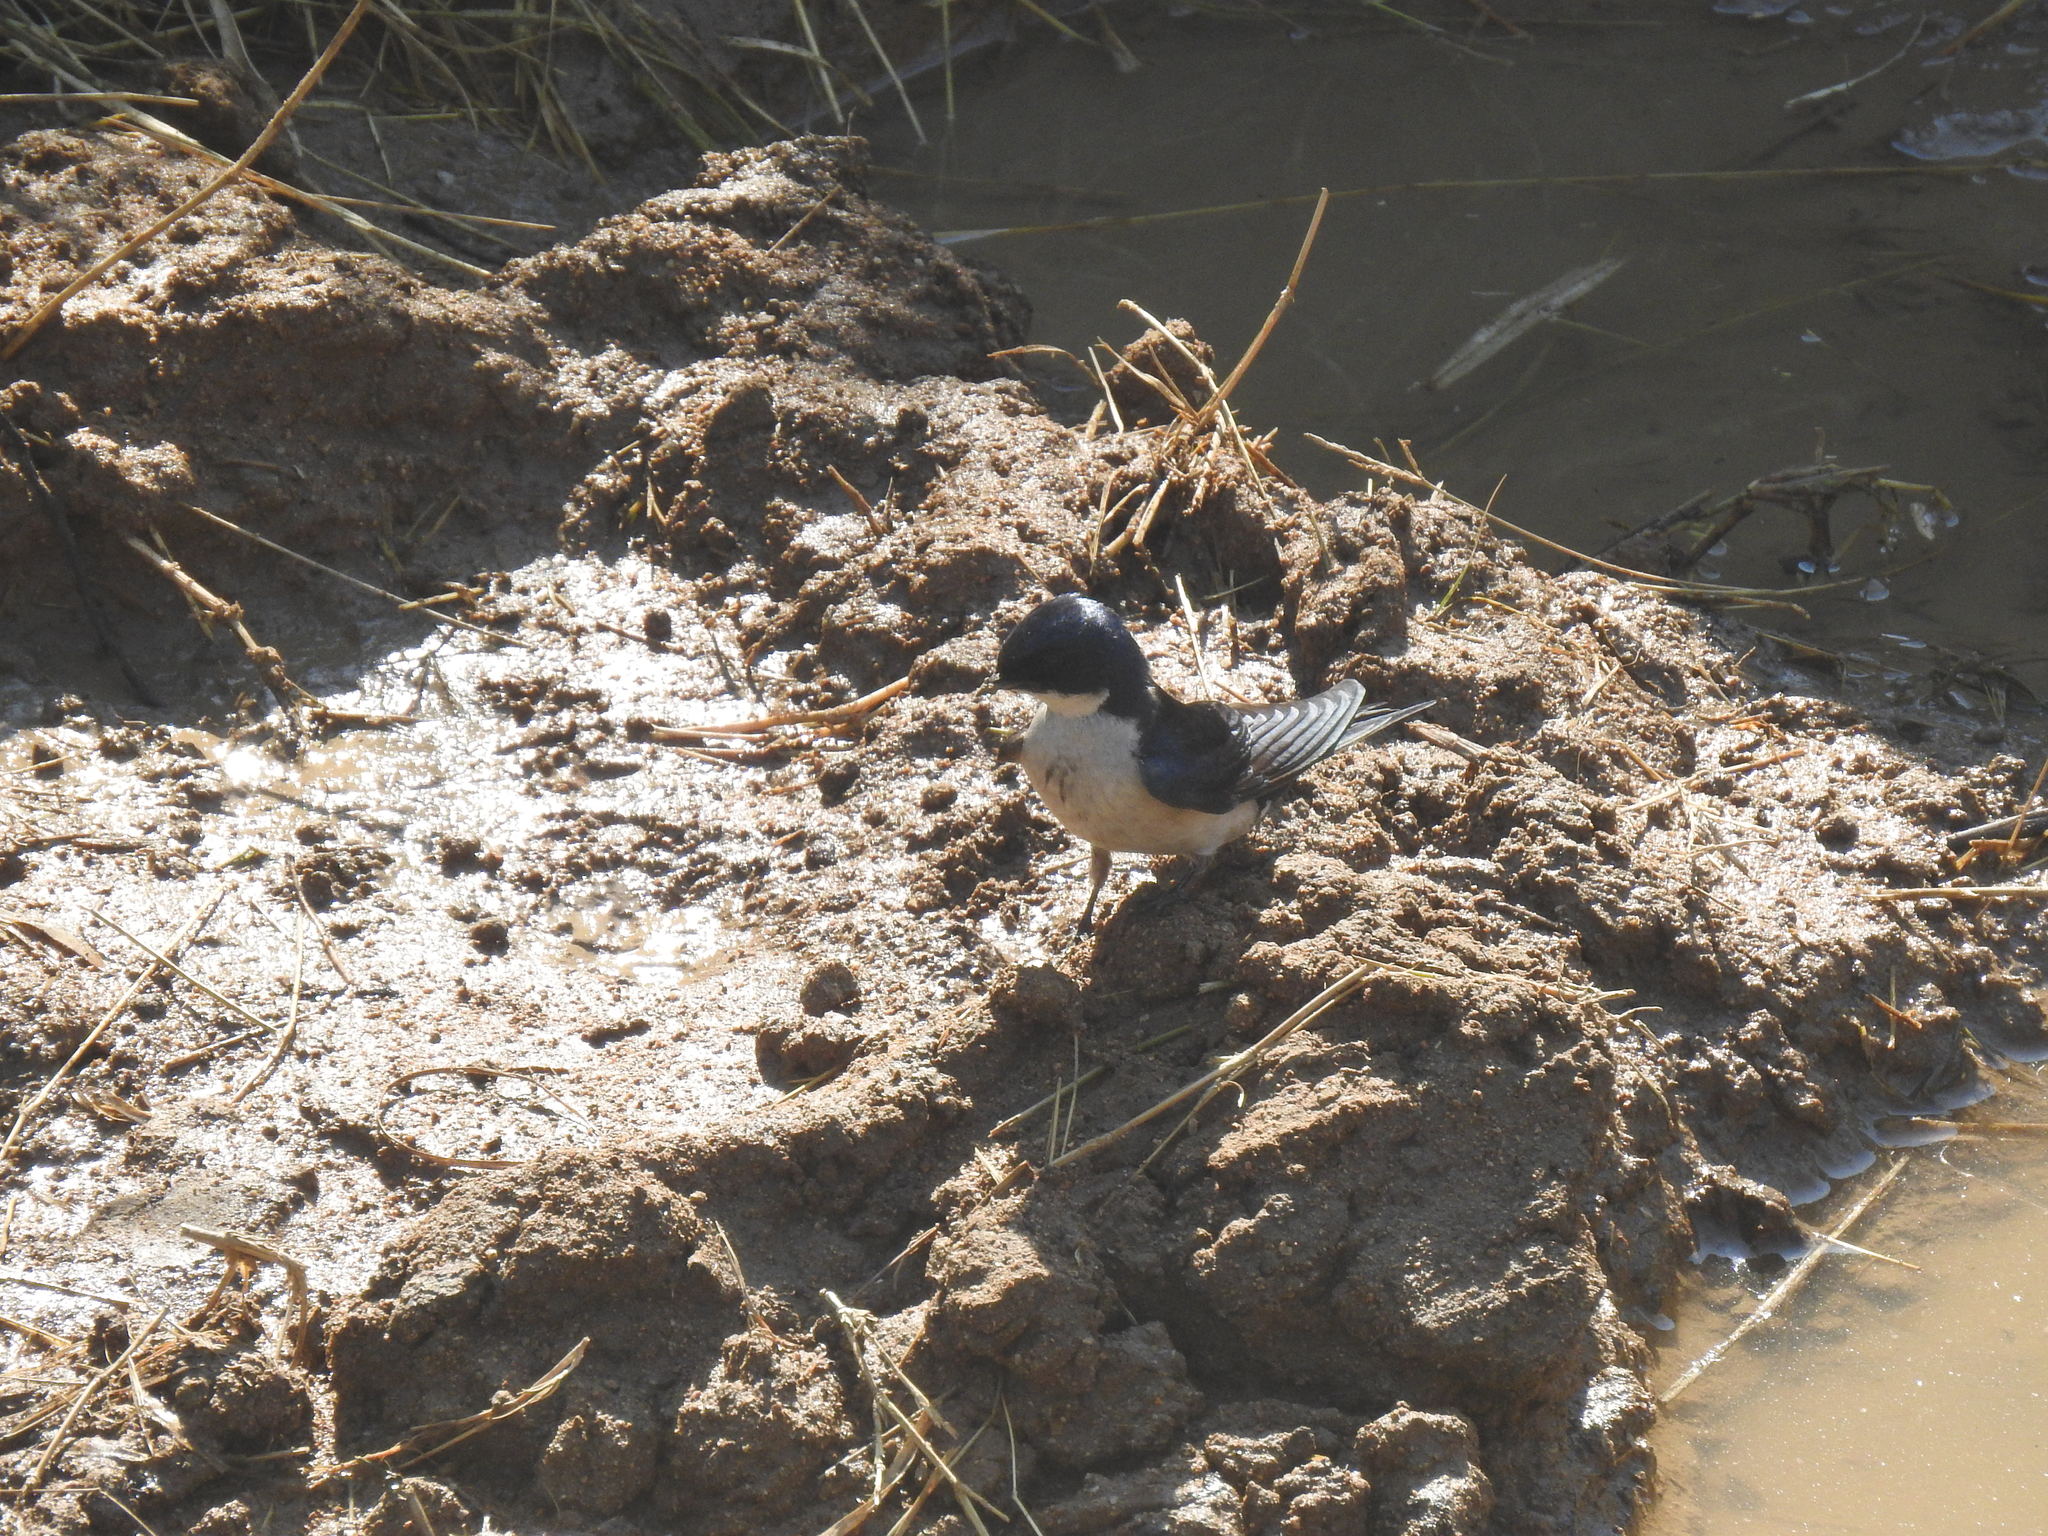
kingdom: Animalia
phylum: Chordata
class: Aves
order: Passeriformes
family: Hirundinidae
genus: Hirundo
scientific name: Hirundo dimidiata
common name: Pearl-breasted swallow
